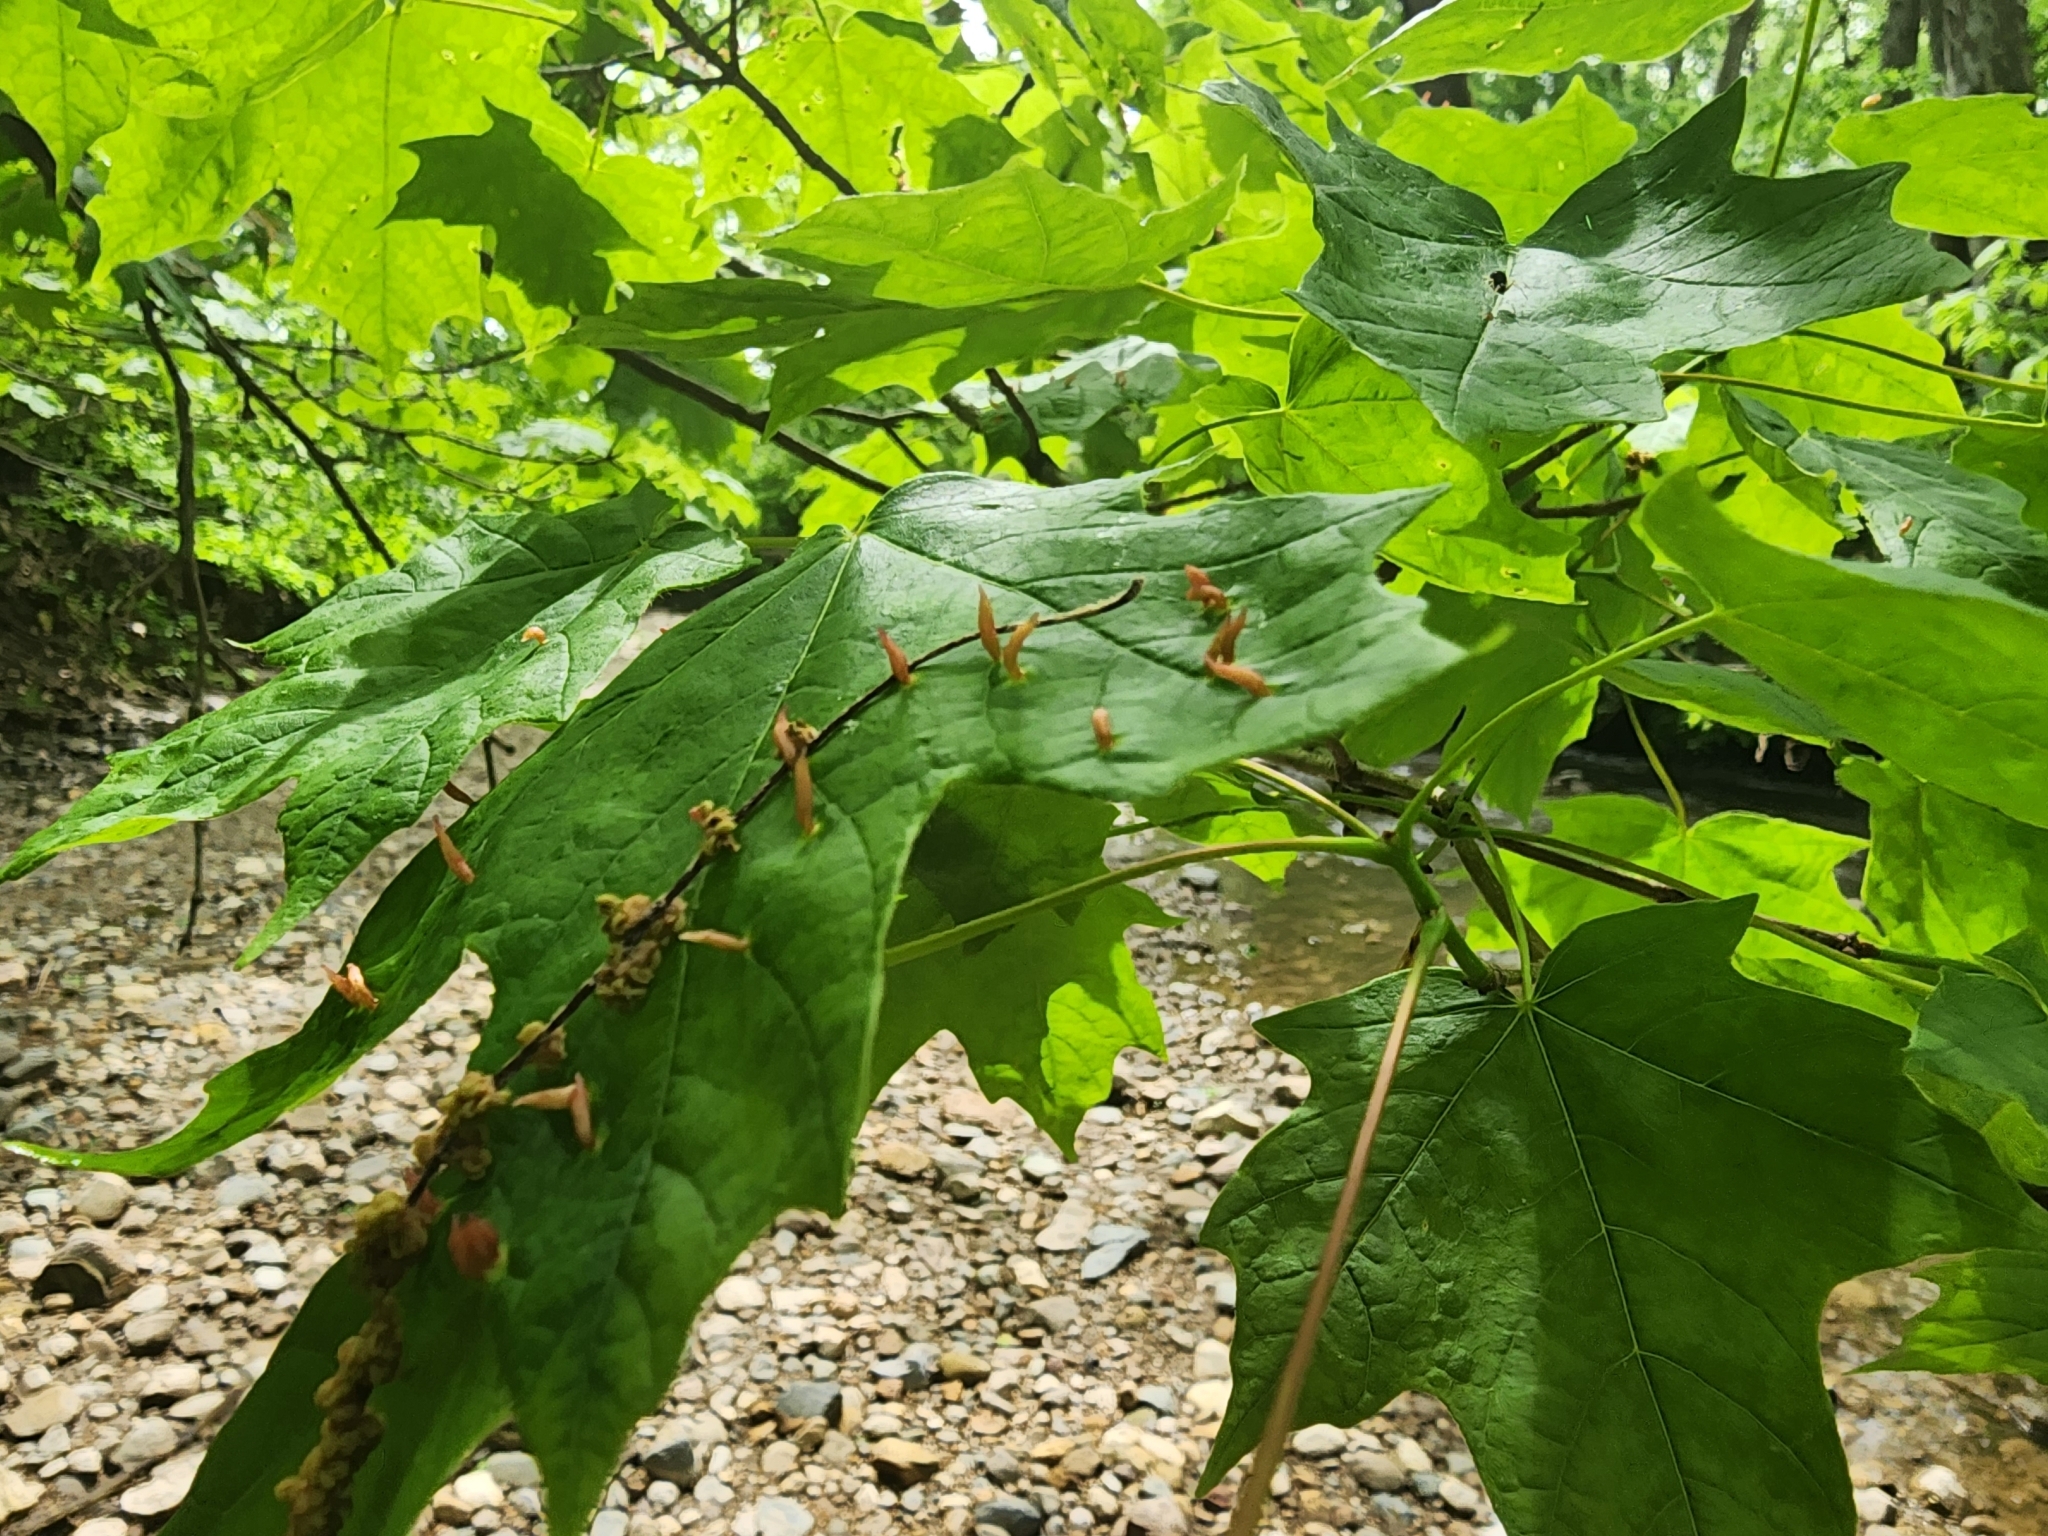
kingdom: Animalia
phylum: Arthropoda
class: Arachnida
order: Trombidiformes
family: Eriophyidae
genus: Vasates
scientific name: Vasates aceriscrumena
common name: Maple spindle gall mite
